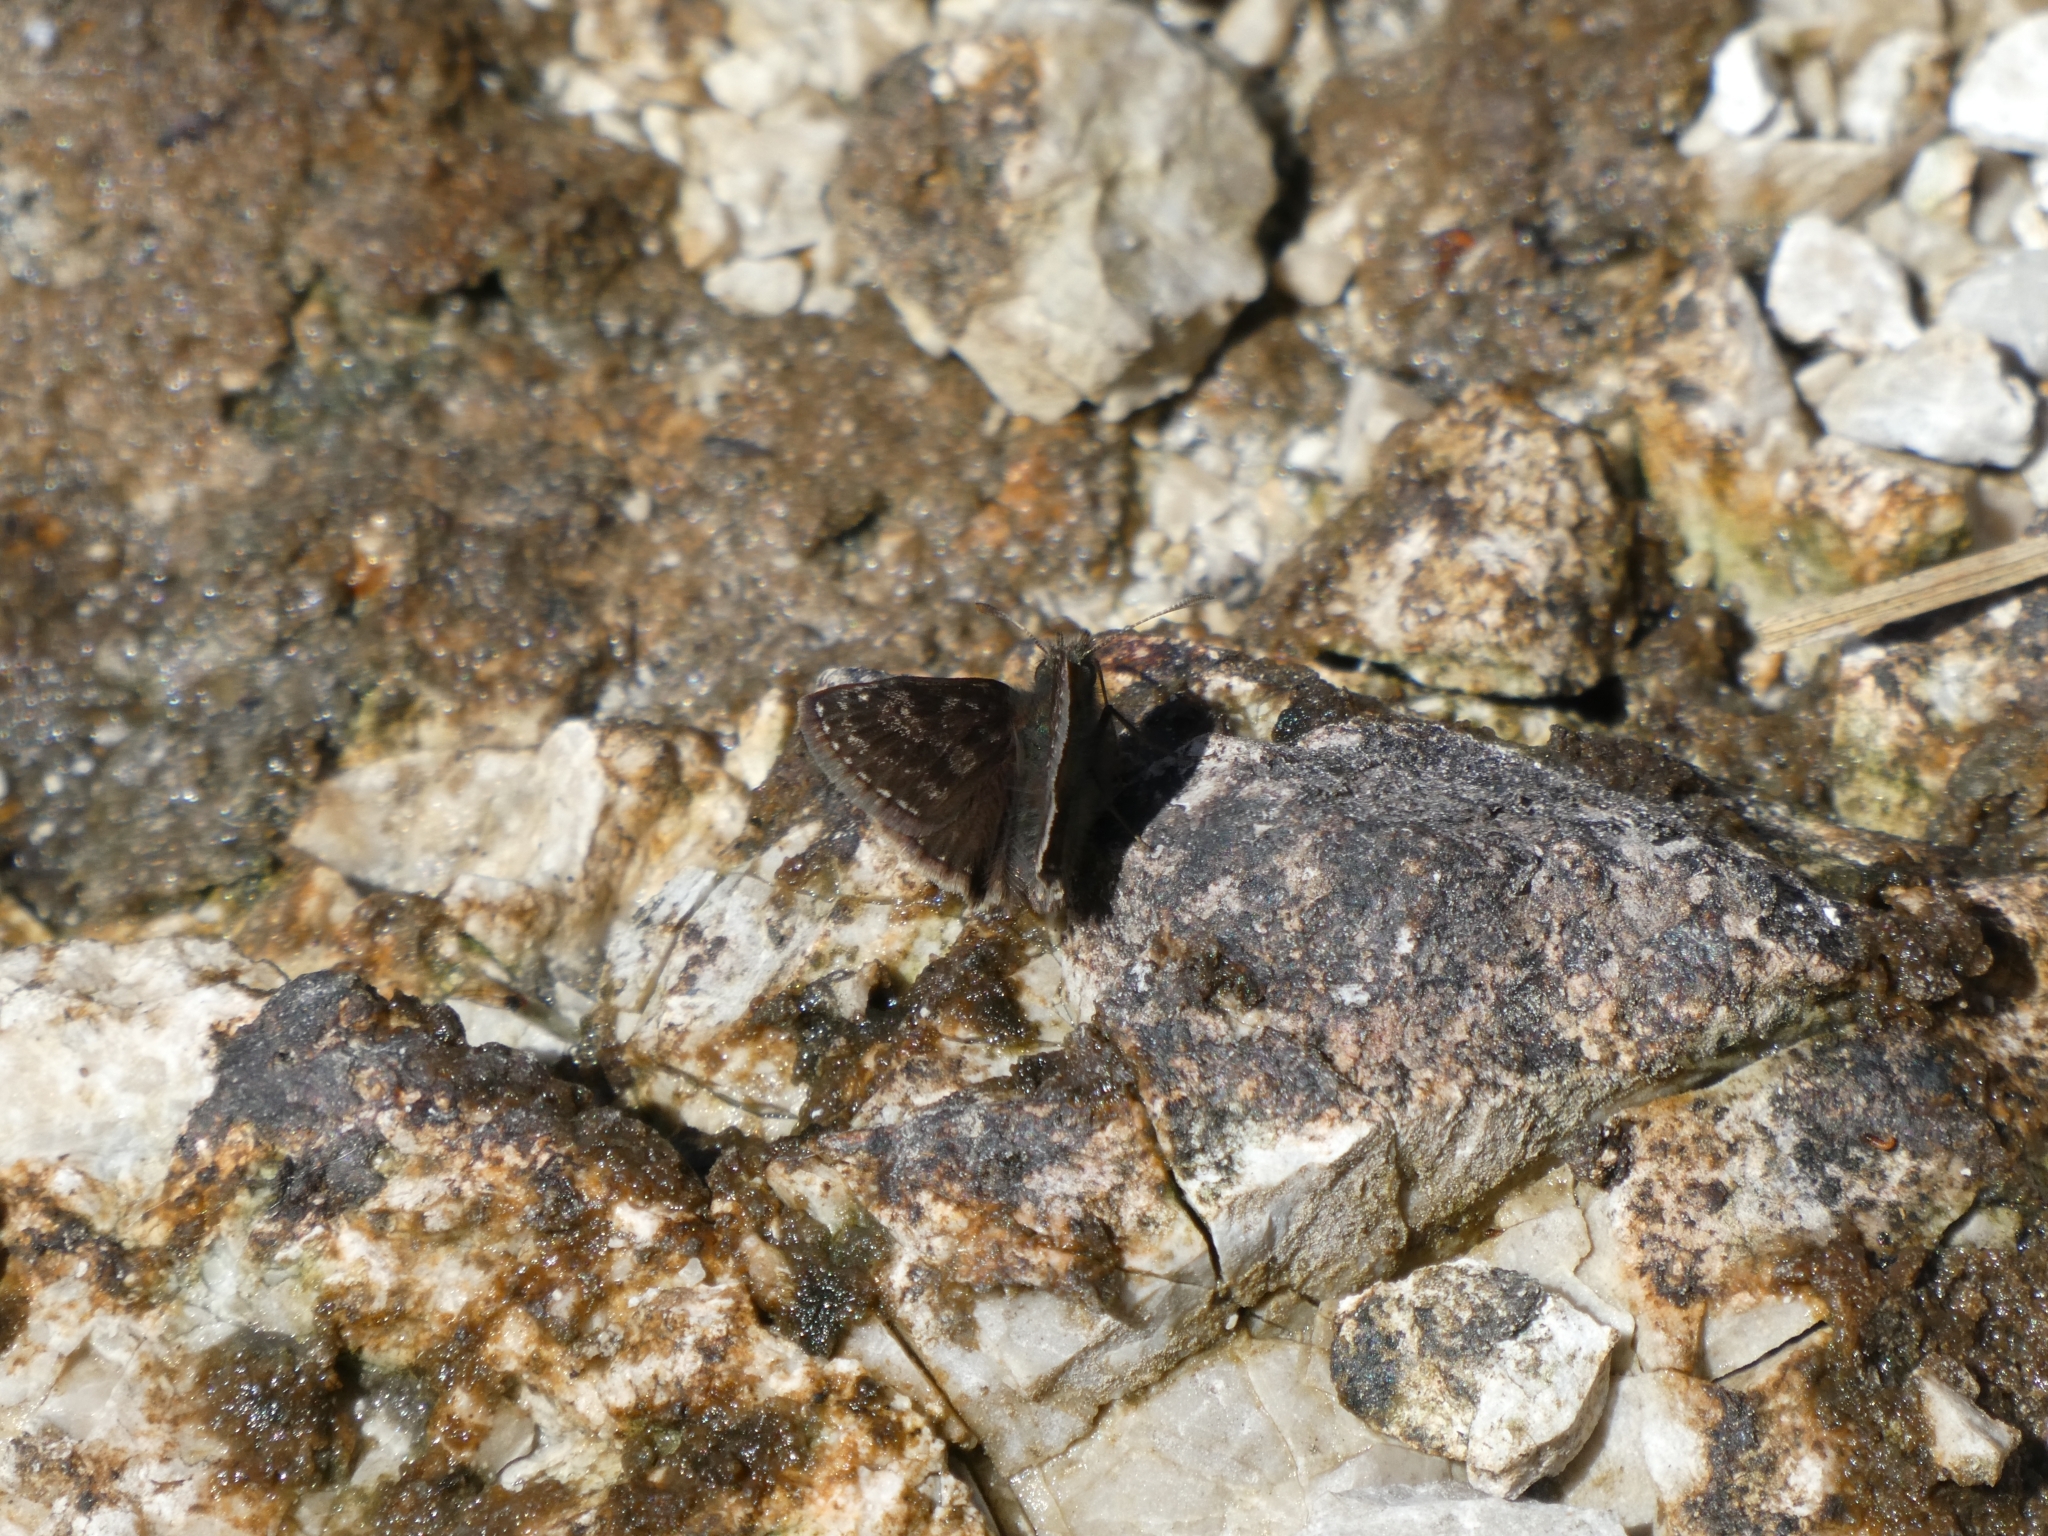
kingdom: Animalia
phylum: Arthropoda
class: Insecta
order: Lepidoptera
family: Hesperiidae
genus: Erynnis
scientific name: Erynnis tages
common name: Dingy skipper
